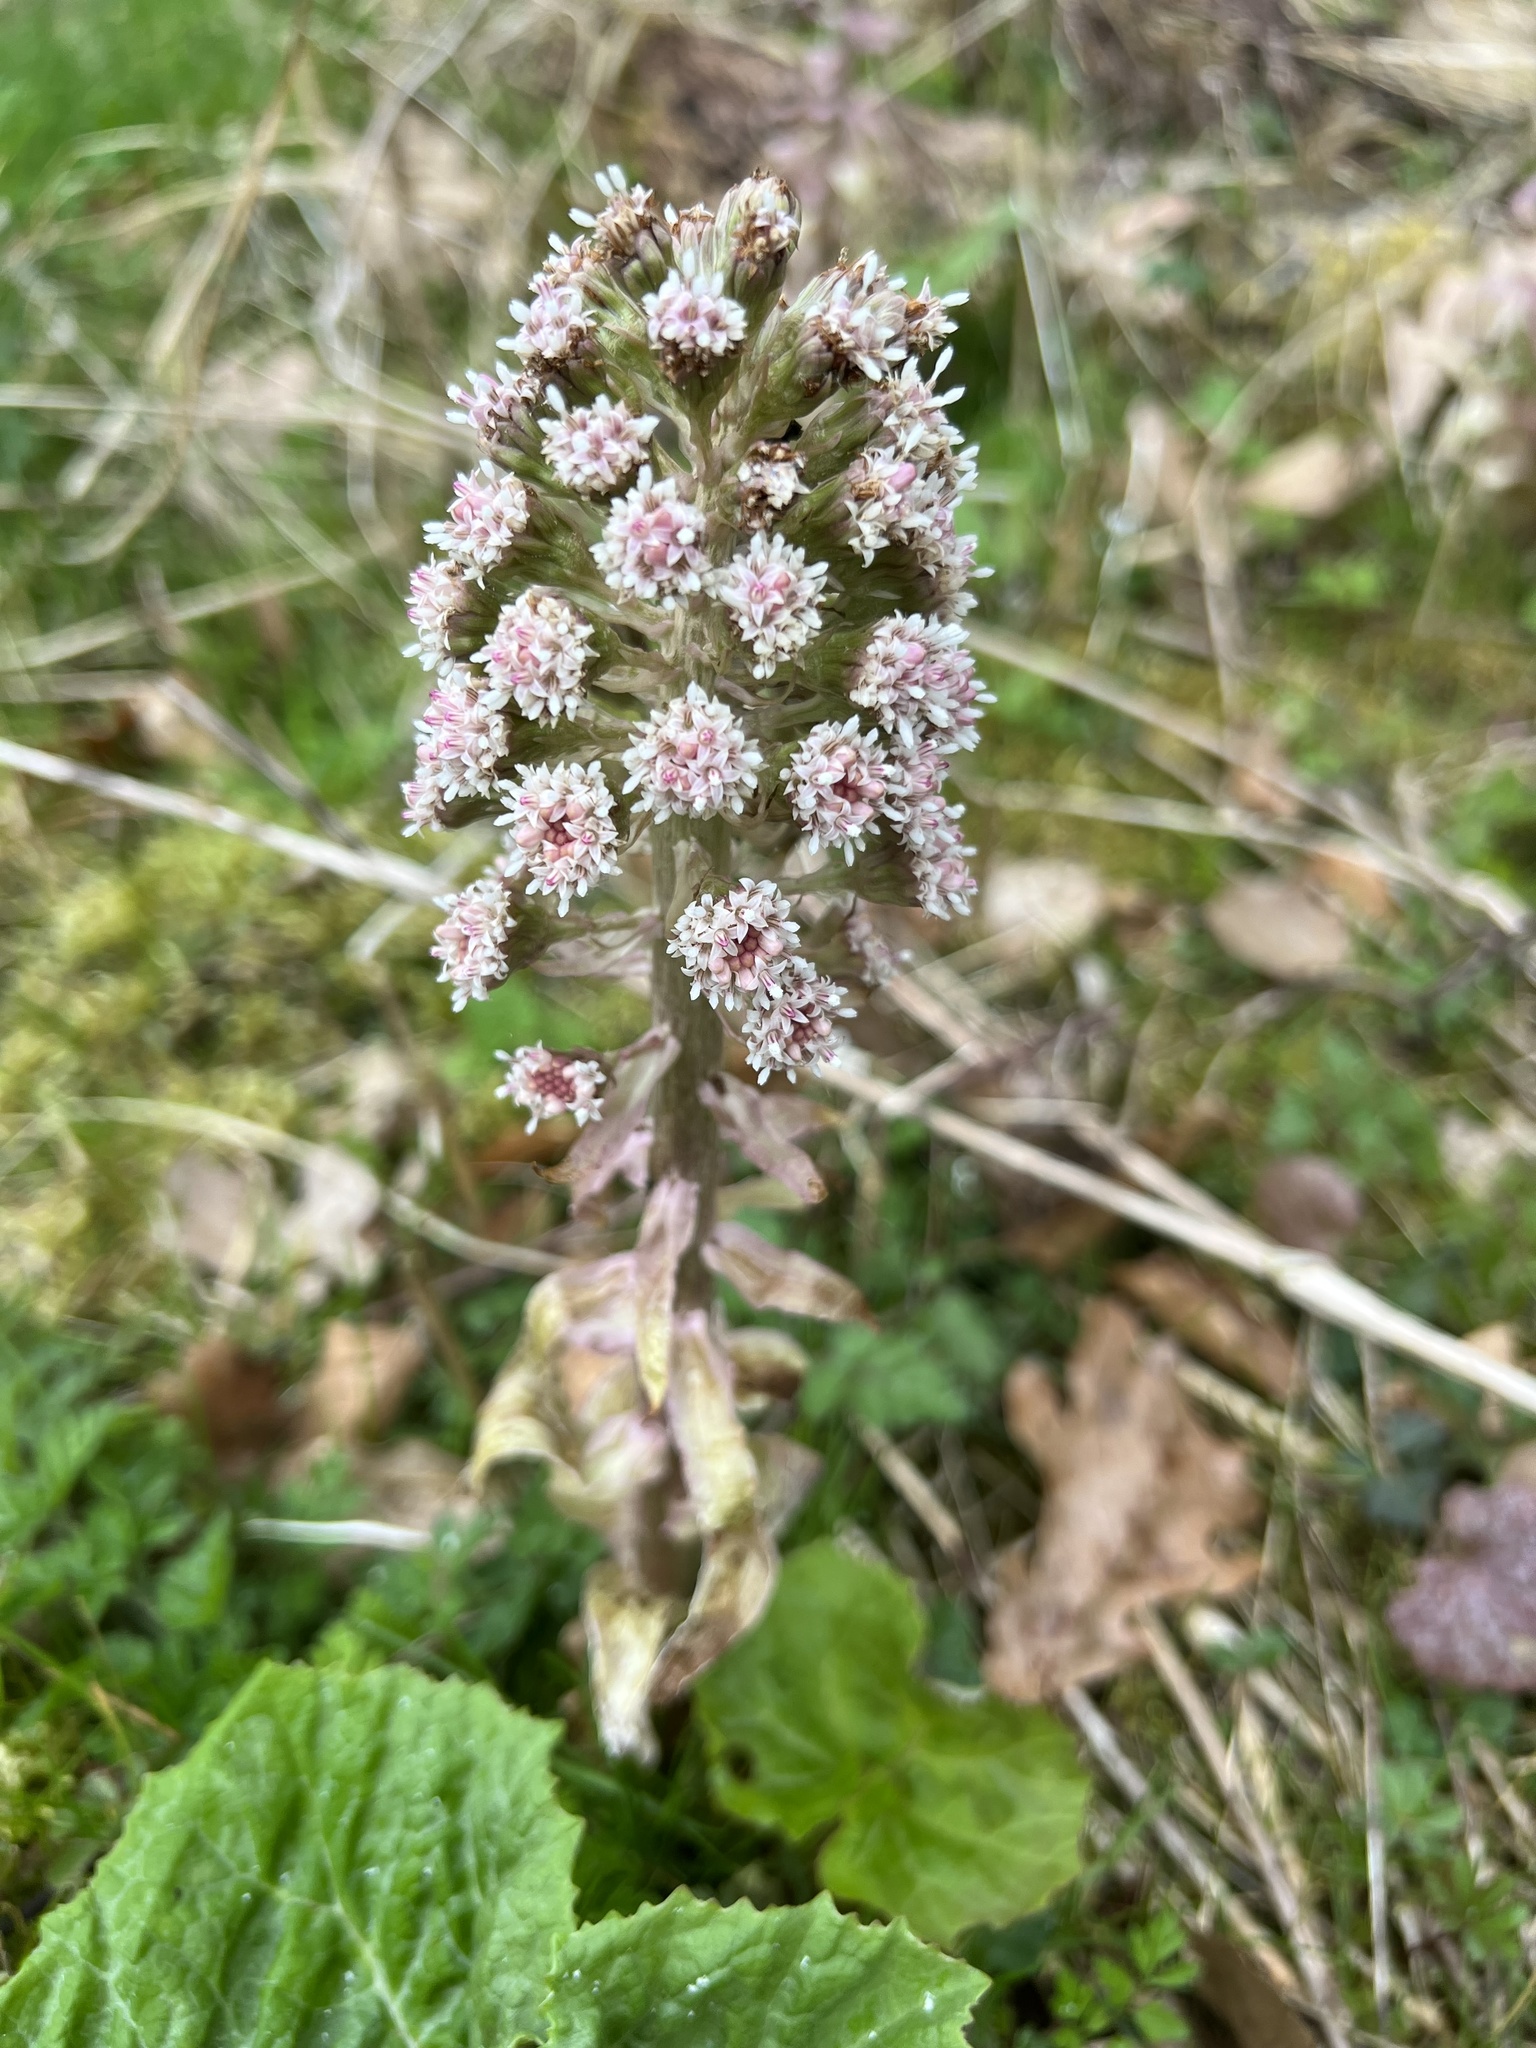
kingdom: Plantae
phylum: Tracheophyta
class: Magnoliopsida
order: Asterales
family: Asteraceae
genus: Petasites
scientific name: Petasites hybridus
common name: Butterbur
